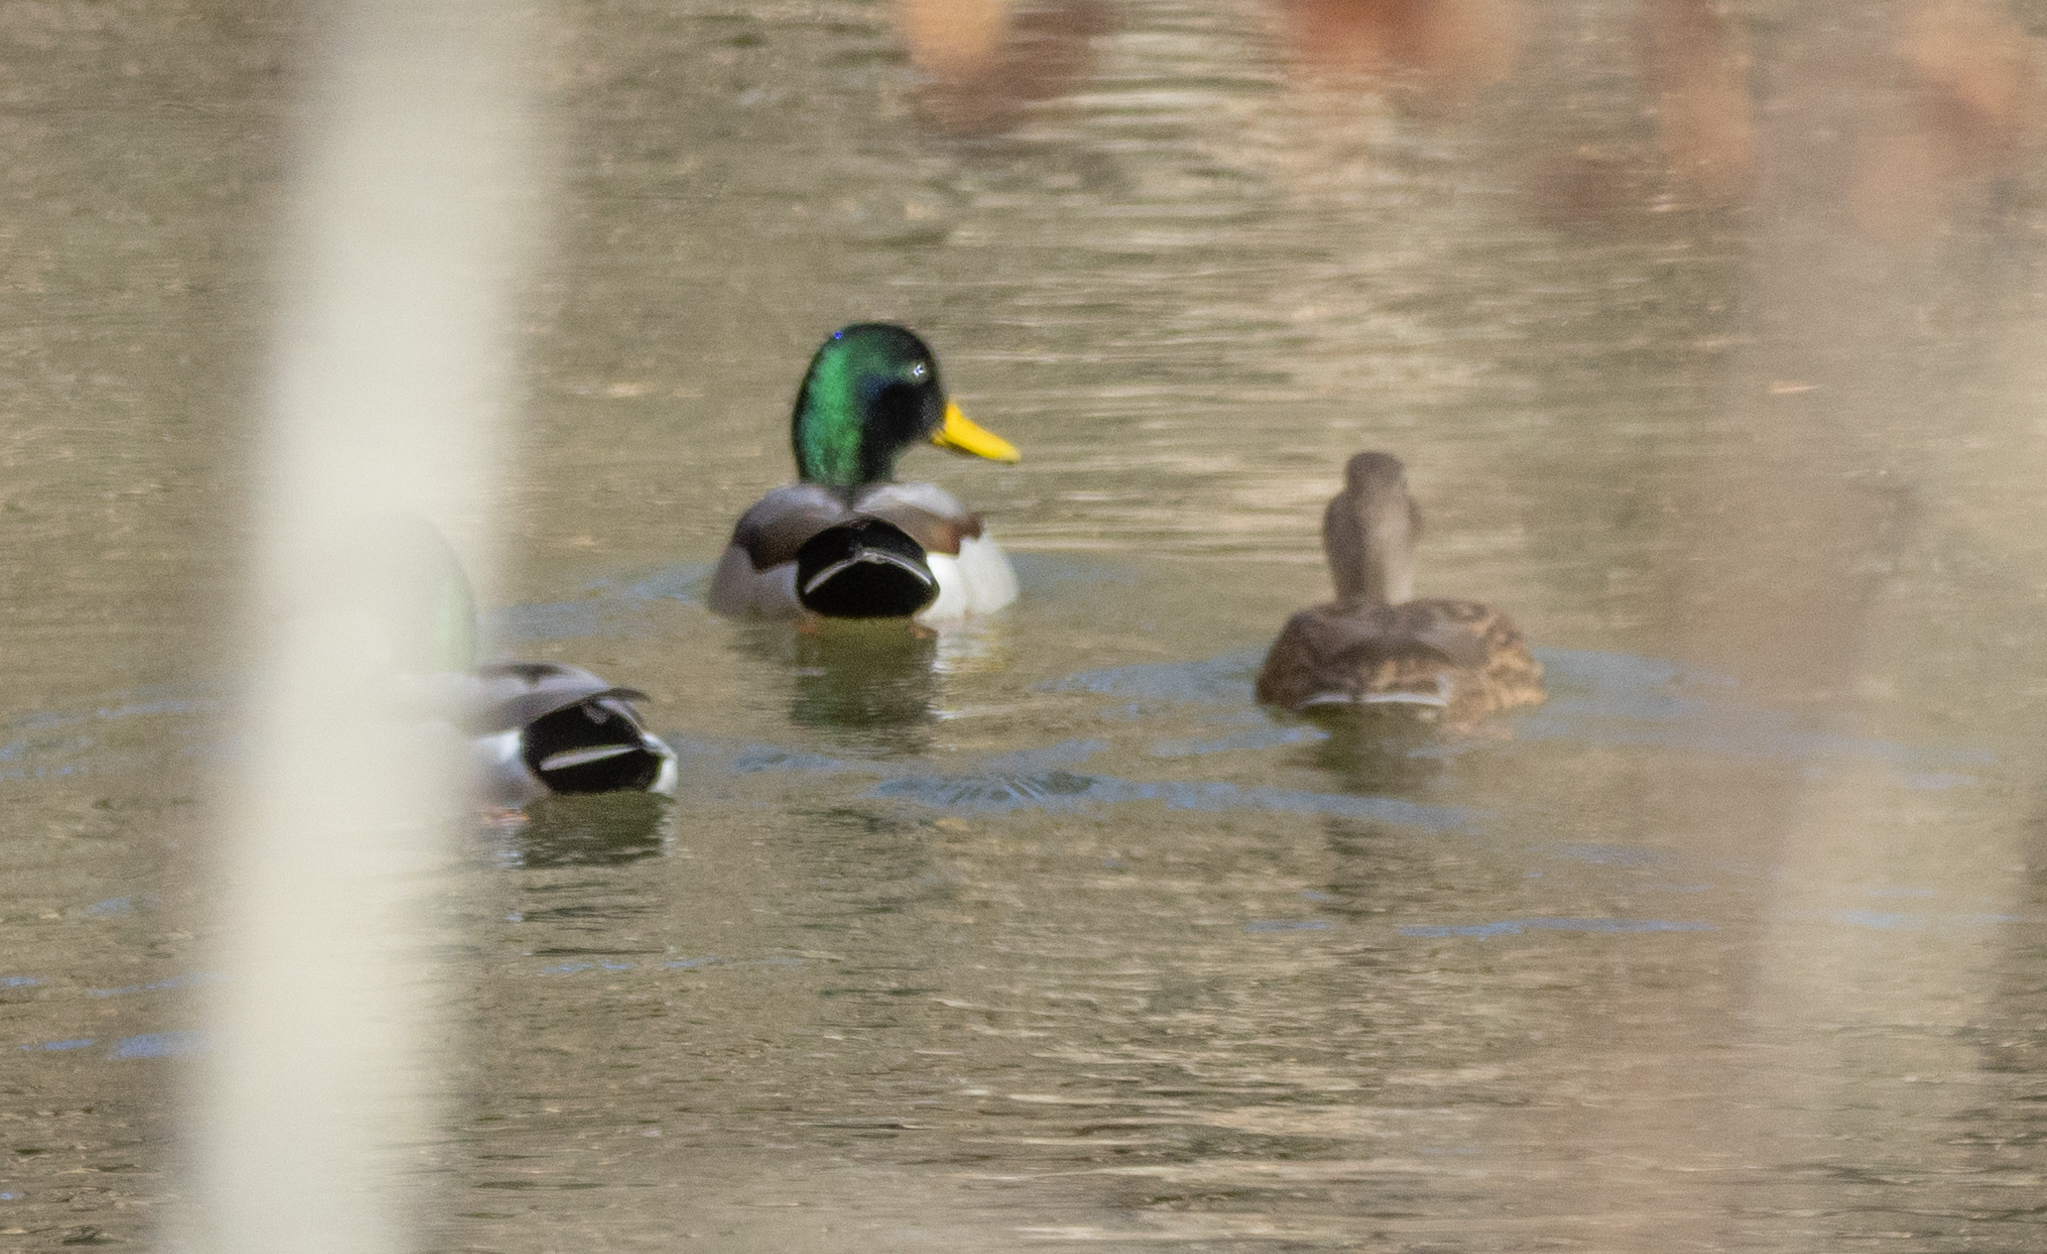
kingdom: Animalia
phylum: Chordata
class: Aves
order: Anseriformes
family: Anatidae
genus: Anas
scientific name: Anas platyrhynchos
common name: Mallard
